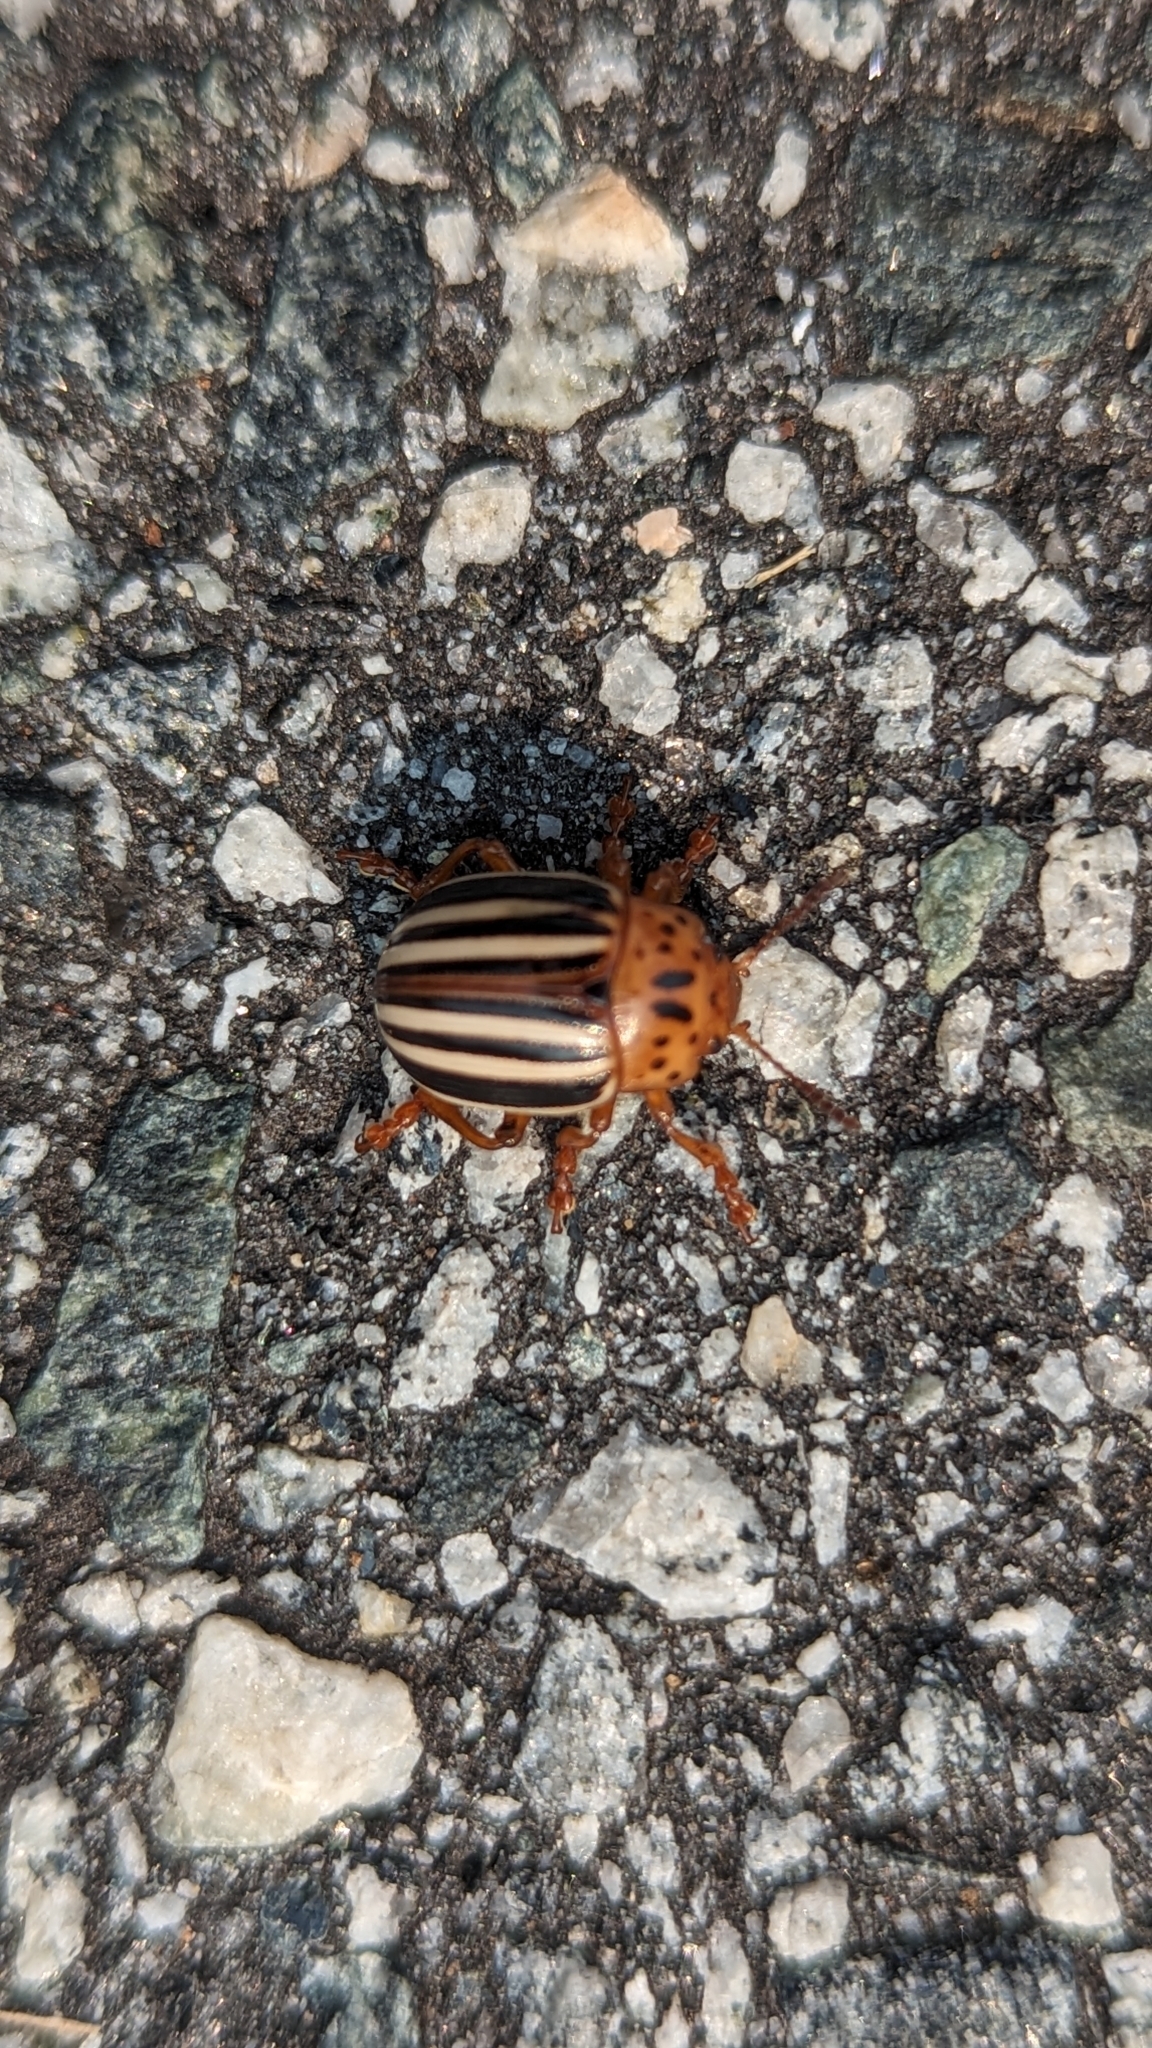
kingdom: Animalia
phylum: Arthropoda
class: Insecta
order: Coleoptera
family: Chrysomelidae
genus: Leptinotarsa
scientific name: Leptinotarsa juncta
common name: False potato beetle
